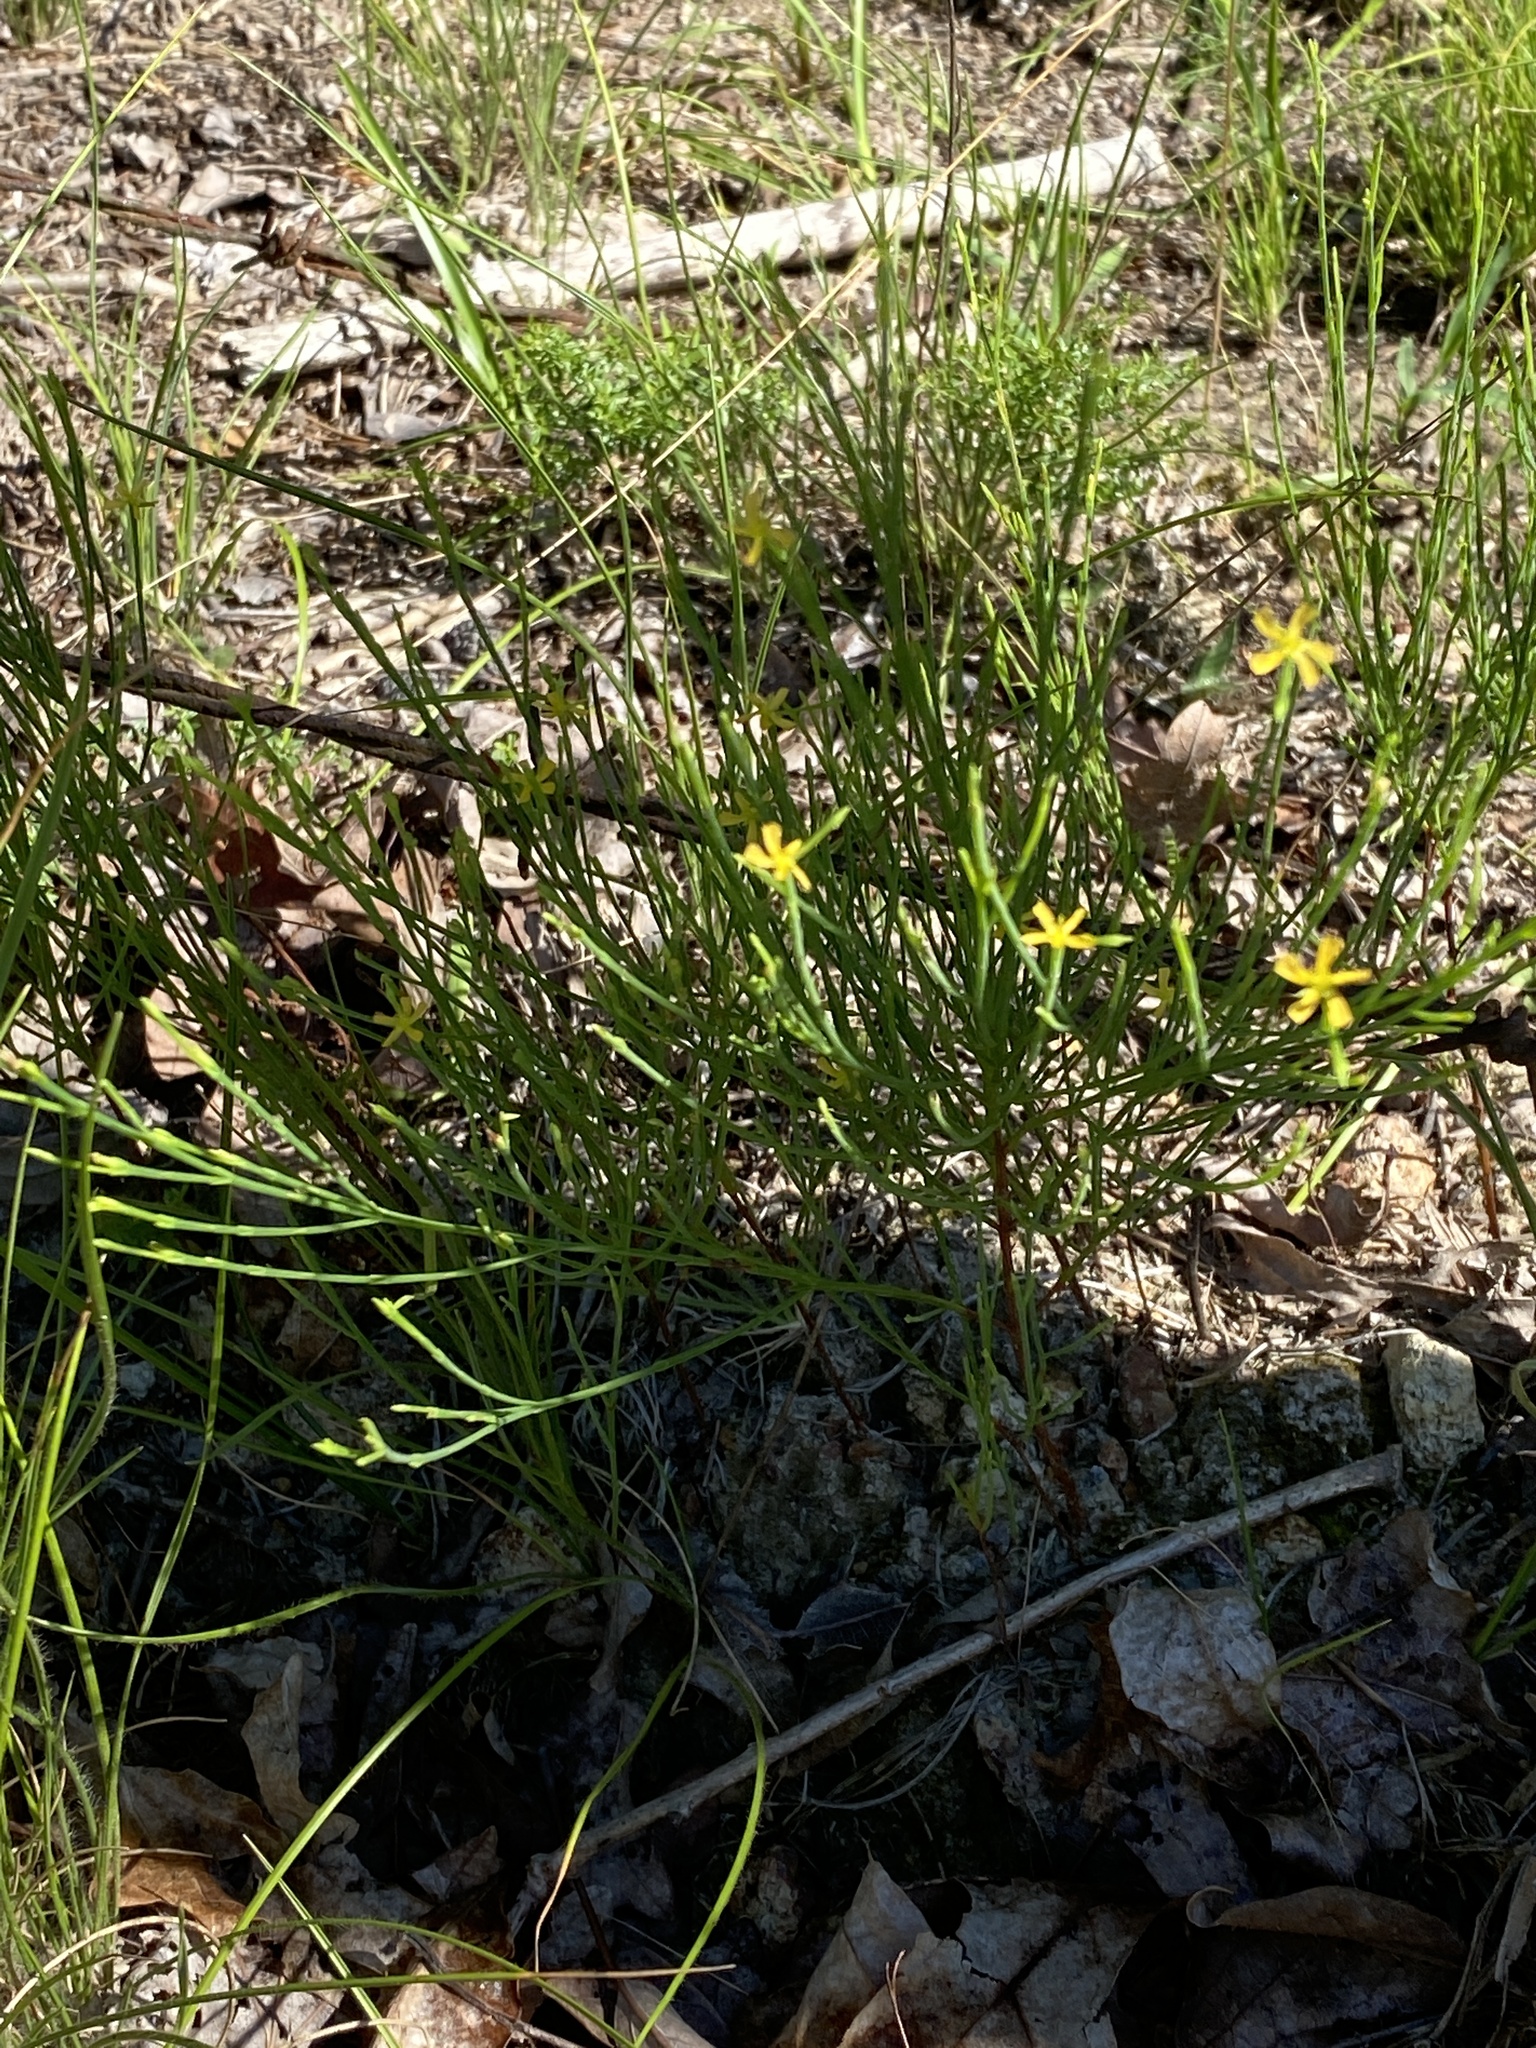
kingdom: Plantae
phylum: Tracheophyta
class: Magnoliopsida
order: Malpighiales
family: Hypericaceae
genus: Hypericum
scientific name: Hypericum gentianoides
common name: Gentian-leaved st. john's-wort
